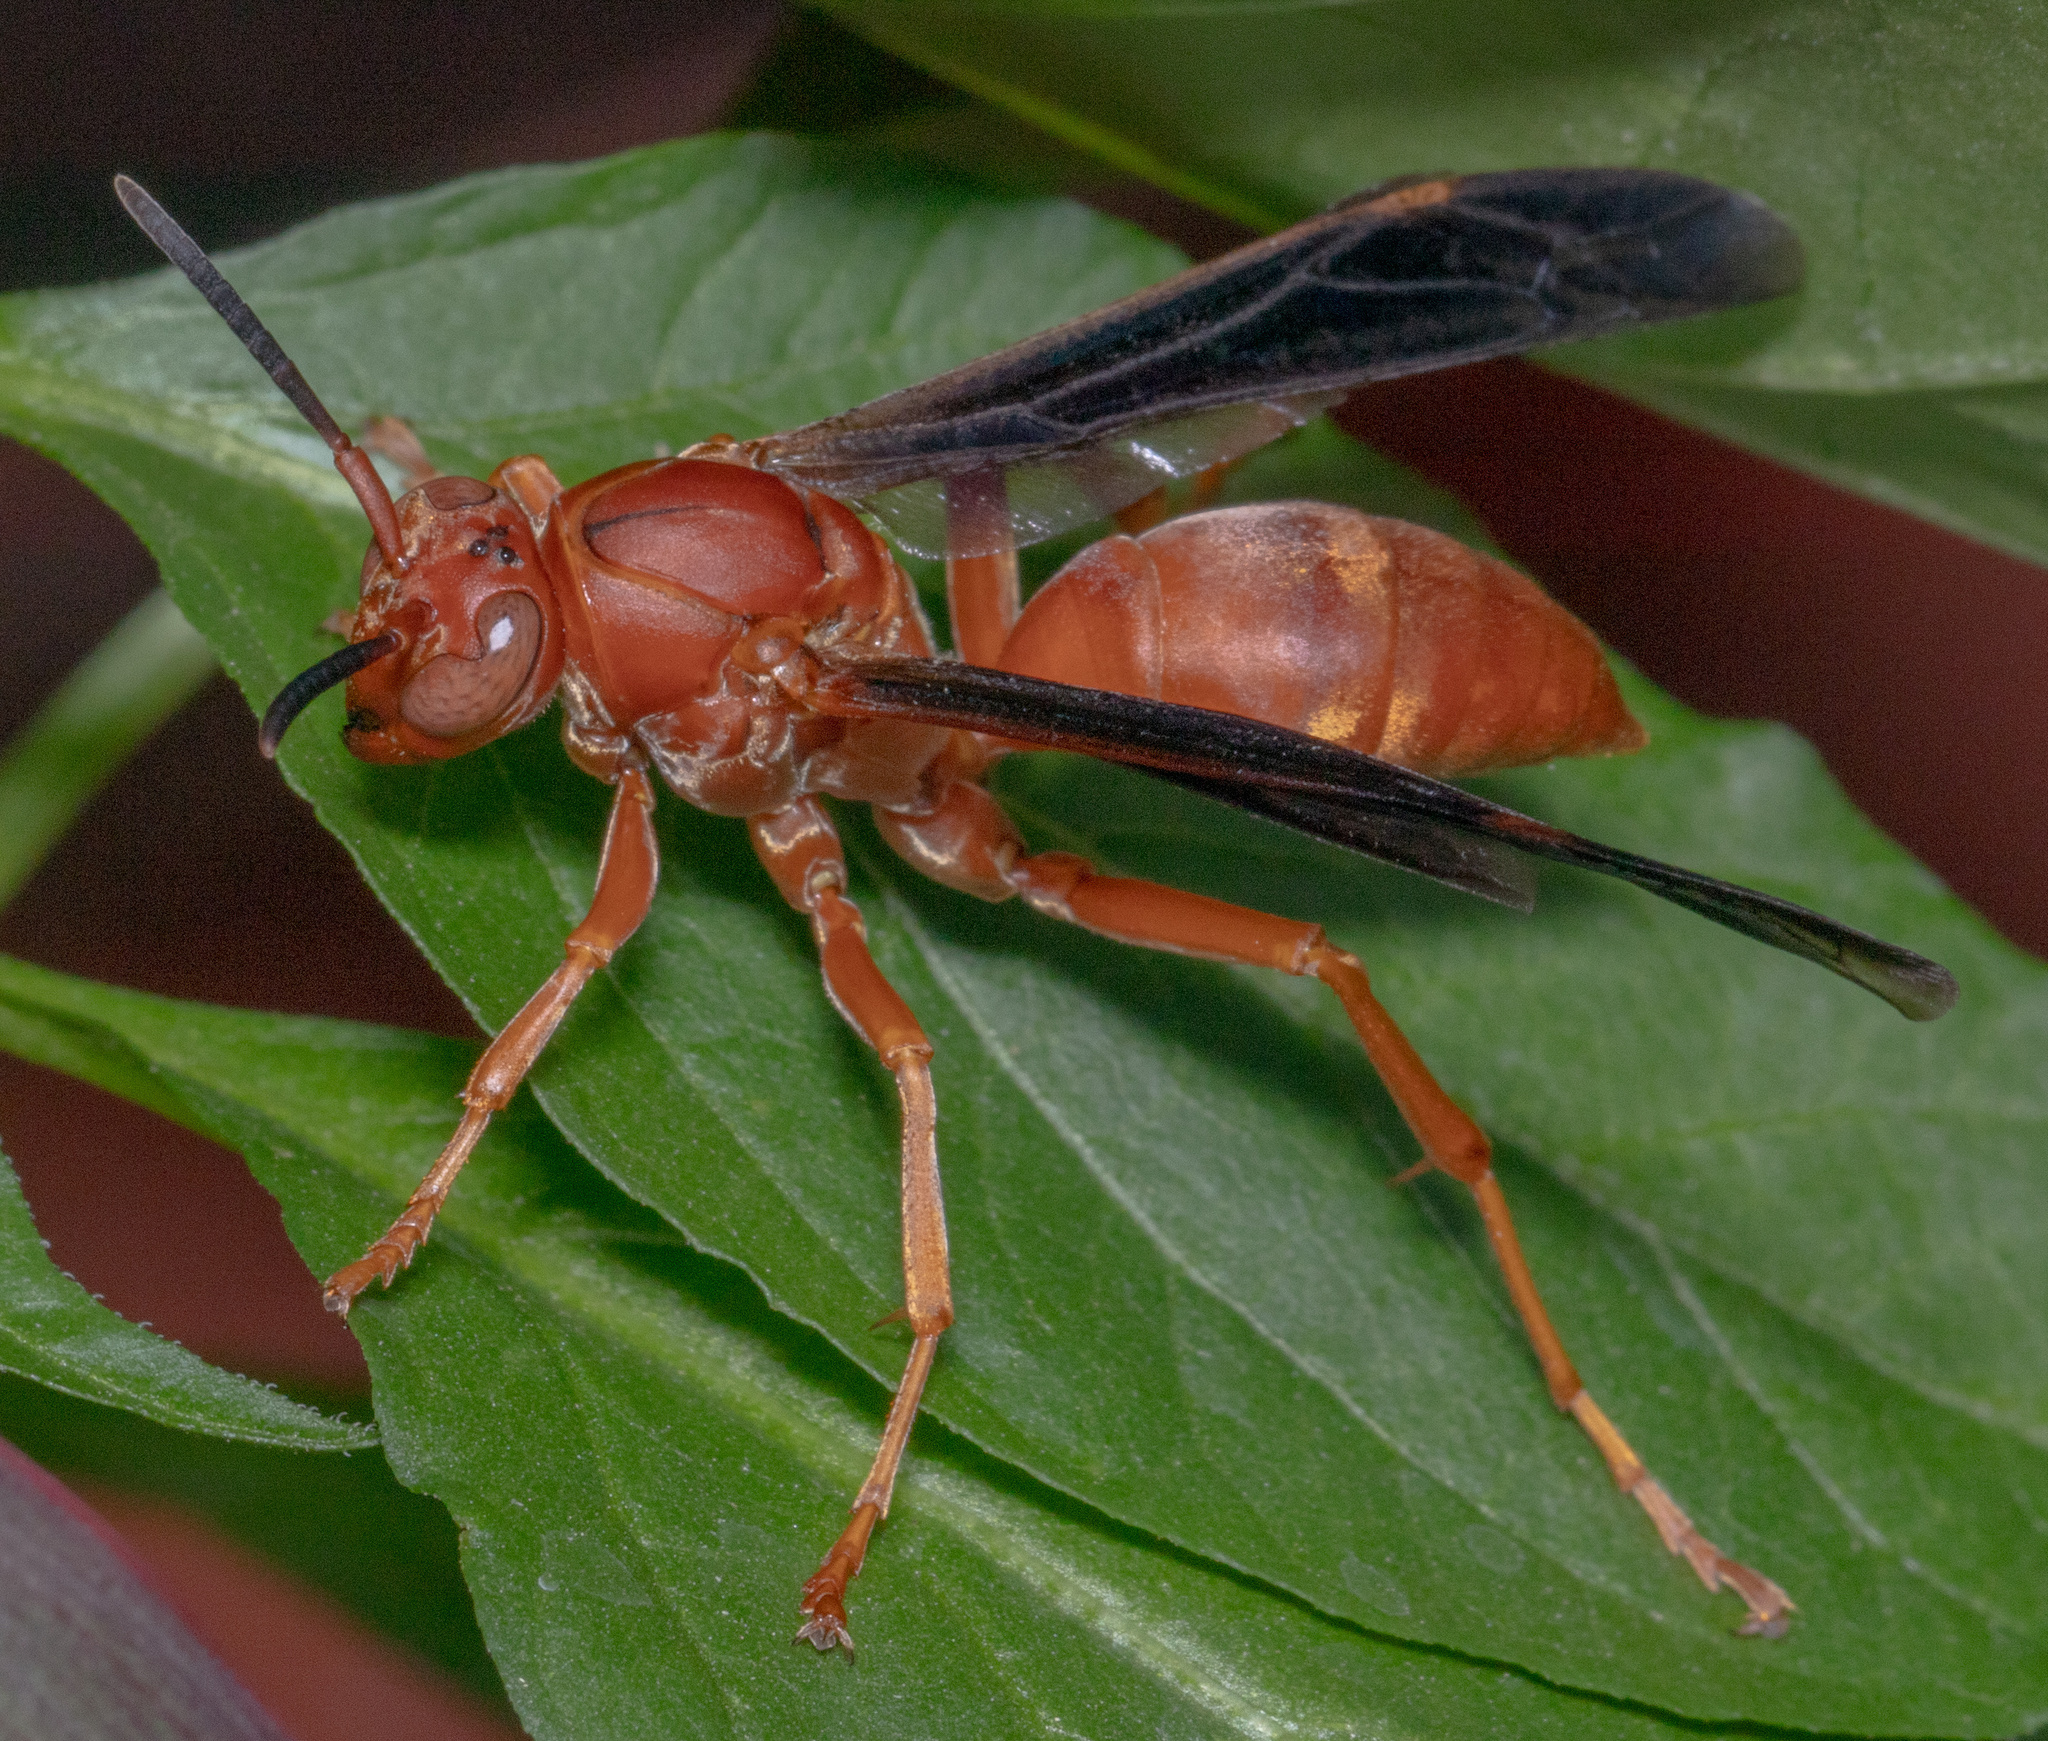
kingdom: Animalia
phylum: Arthropoda
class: Insecta
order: Hymenoptera
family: Vespidae
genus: Fuscopolistes
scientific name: Fuscopolistes
